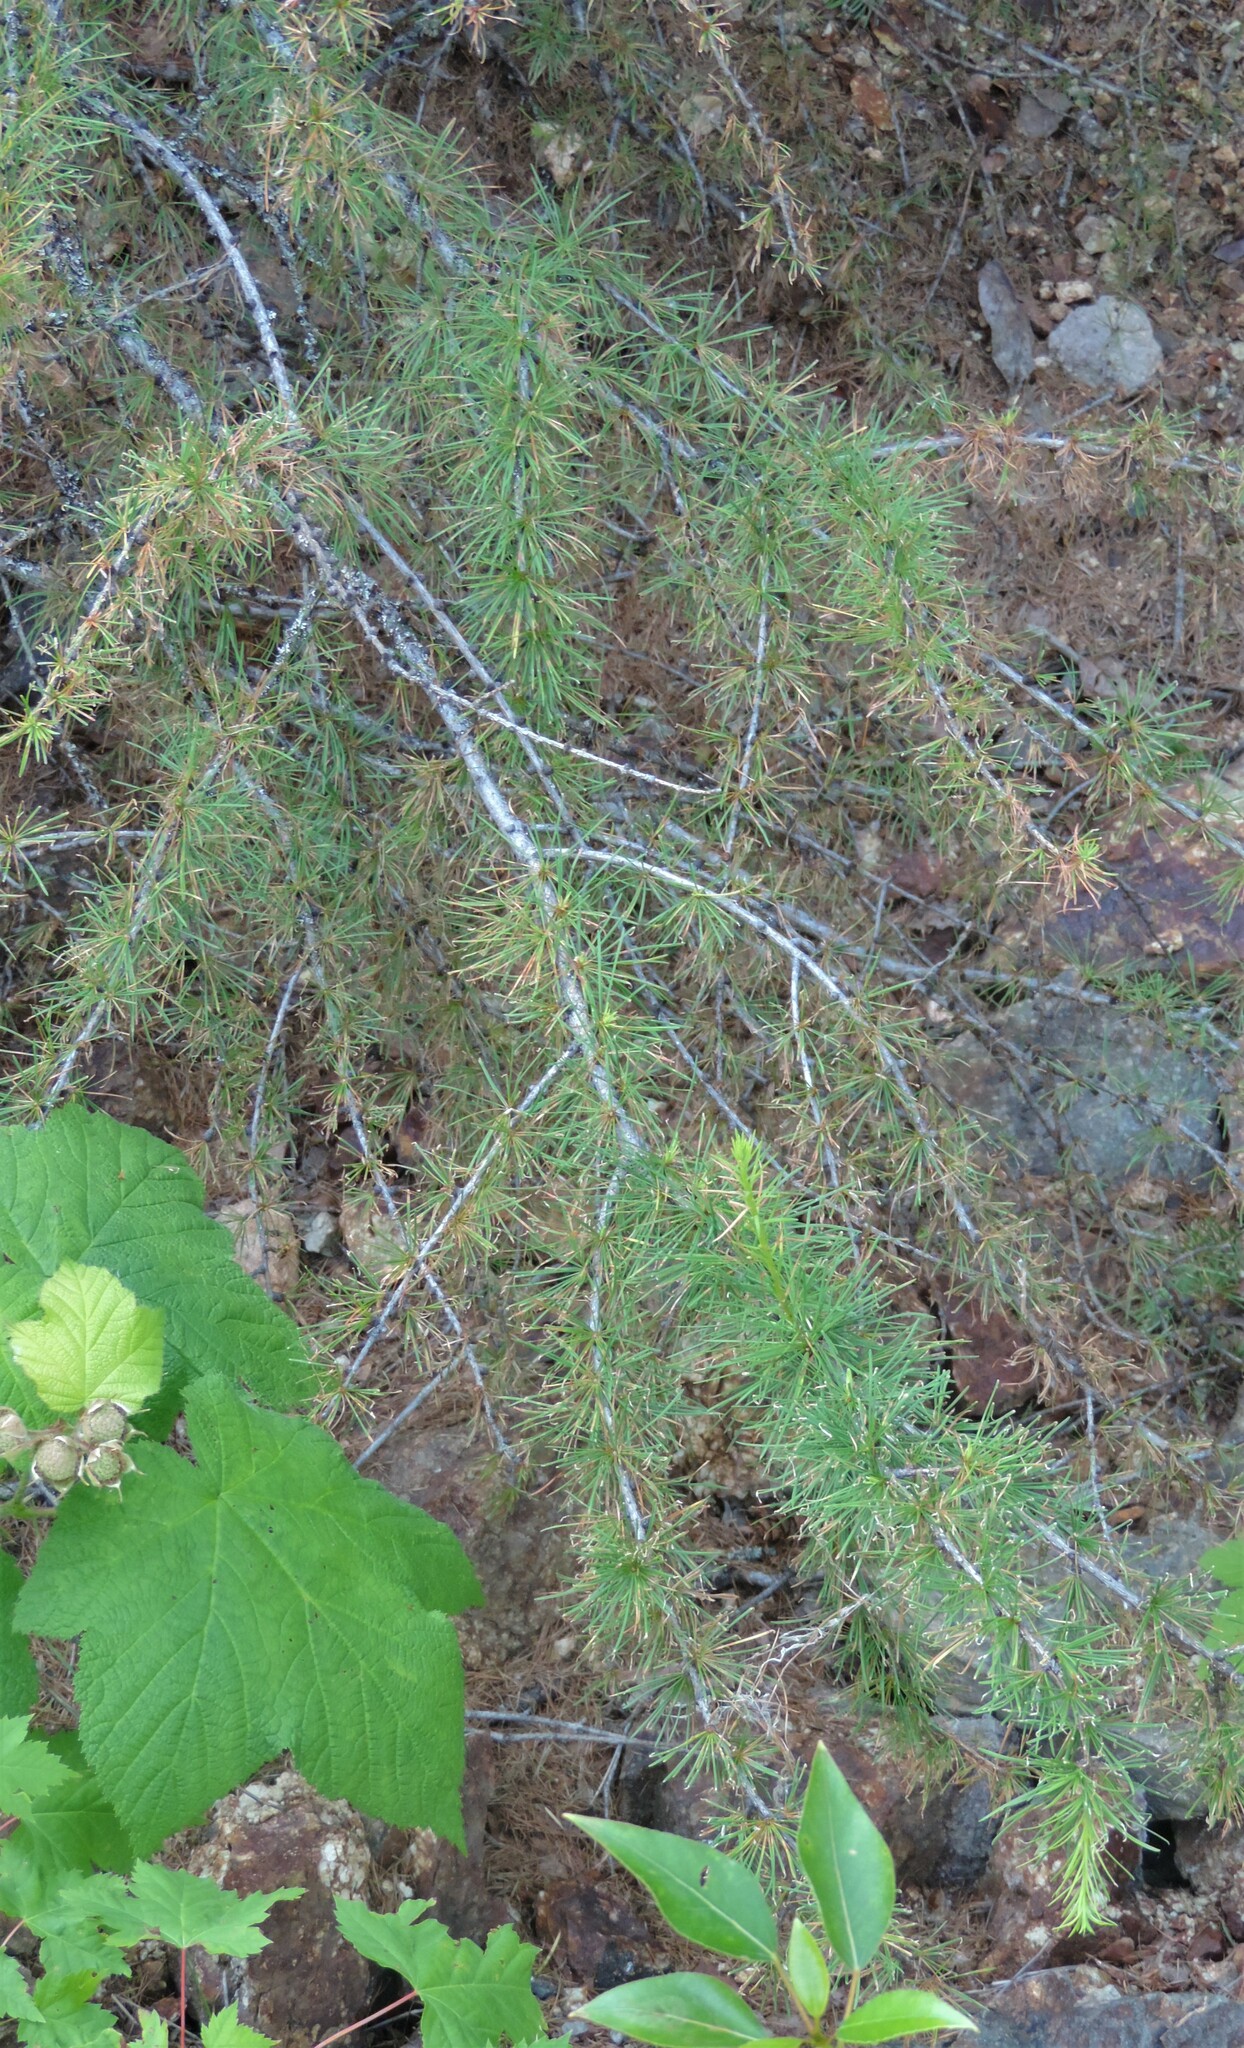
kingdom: Plantae
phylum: Tracheophyta
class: Pinopsida
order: Pinales
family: Pinaceae
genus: Larix
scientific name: Larix occidentalis
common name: Western larch
